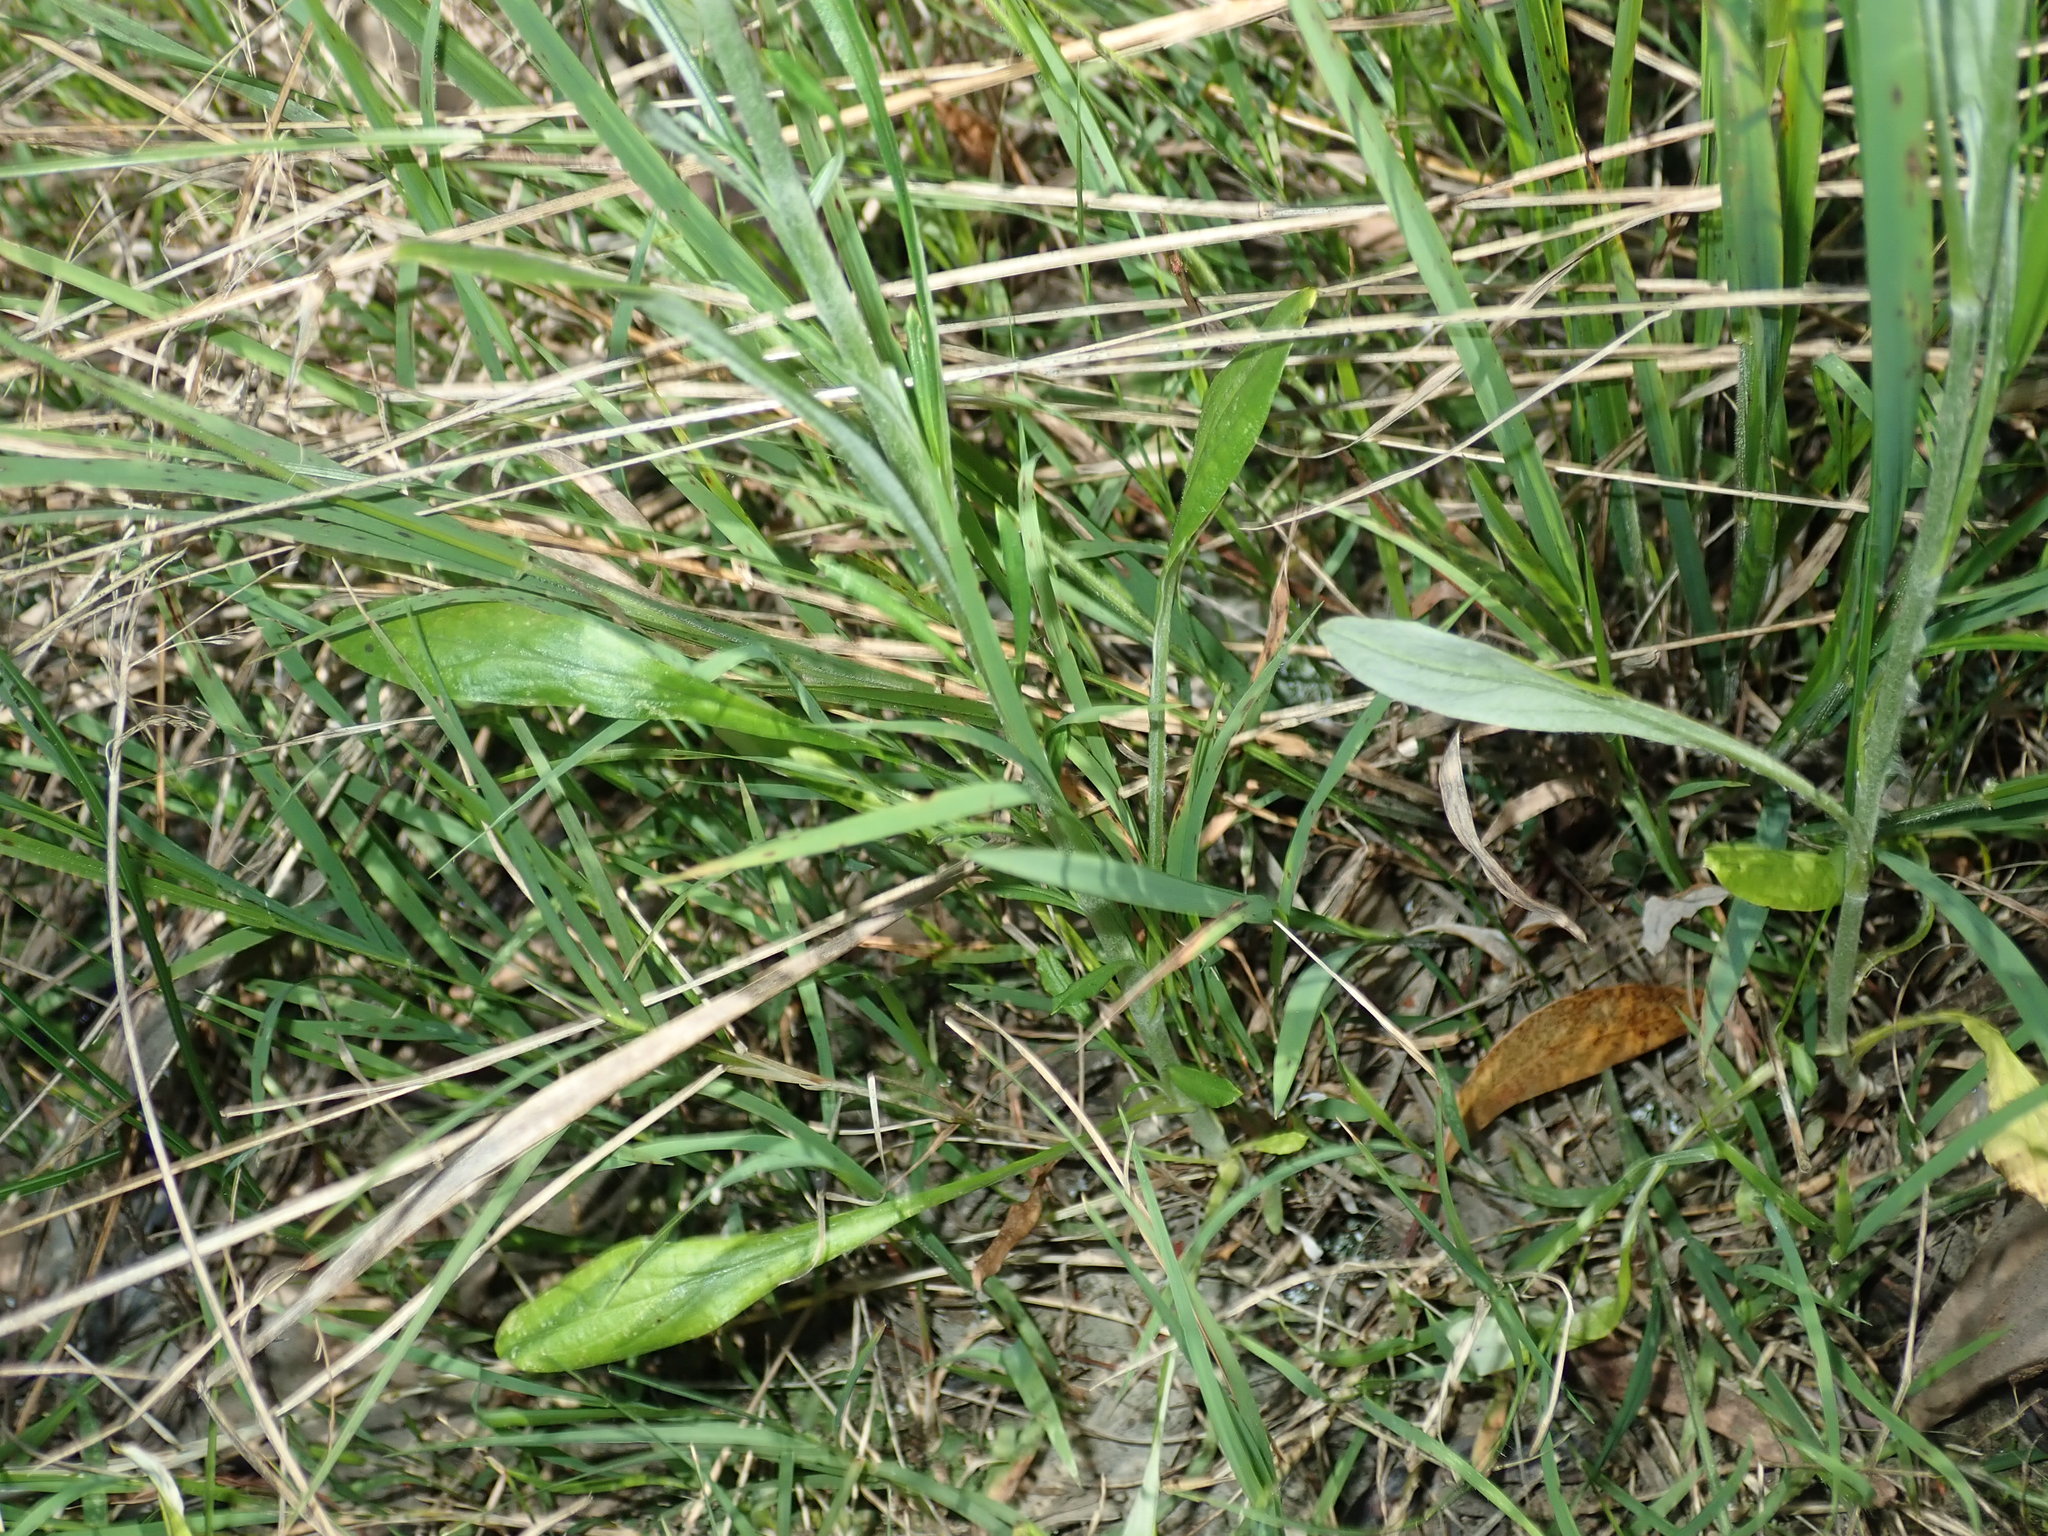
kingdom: Plantae
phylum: Tracheophyta
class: Magnoliopsida
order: Asterales
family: Asteraceae
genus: Euchiton
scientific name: Euchiton sphaericus
